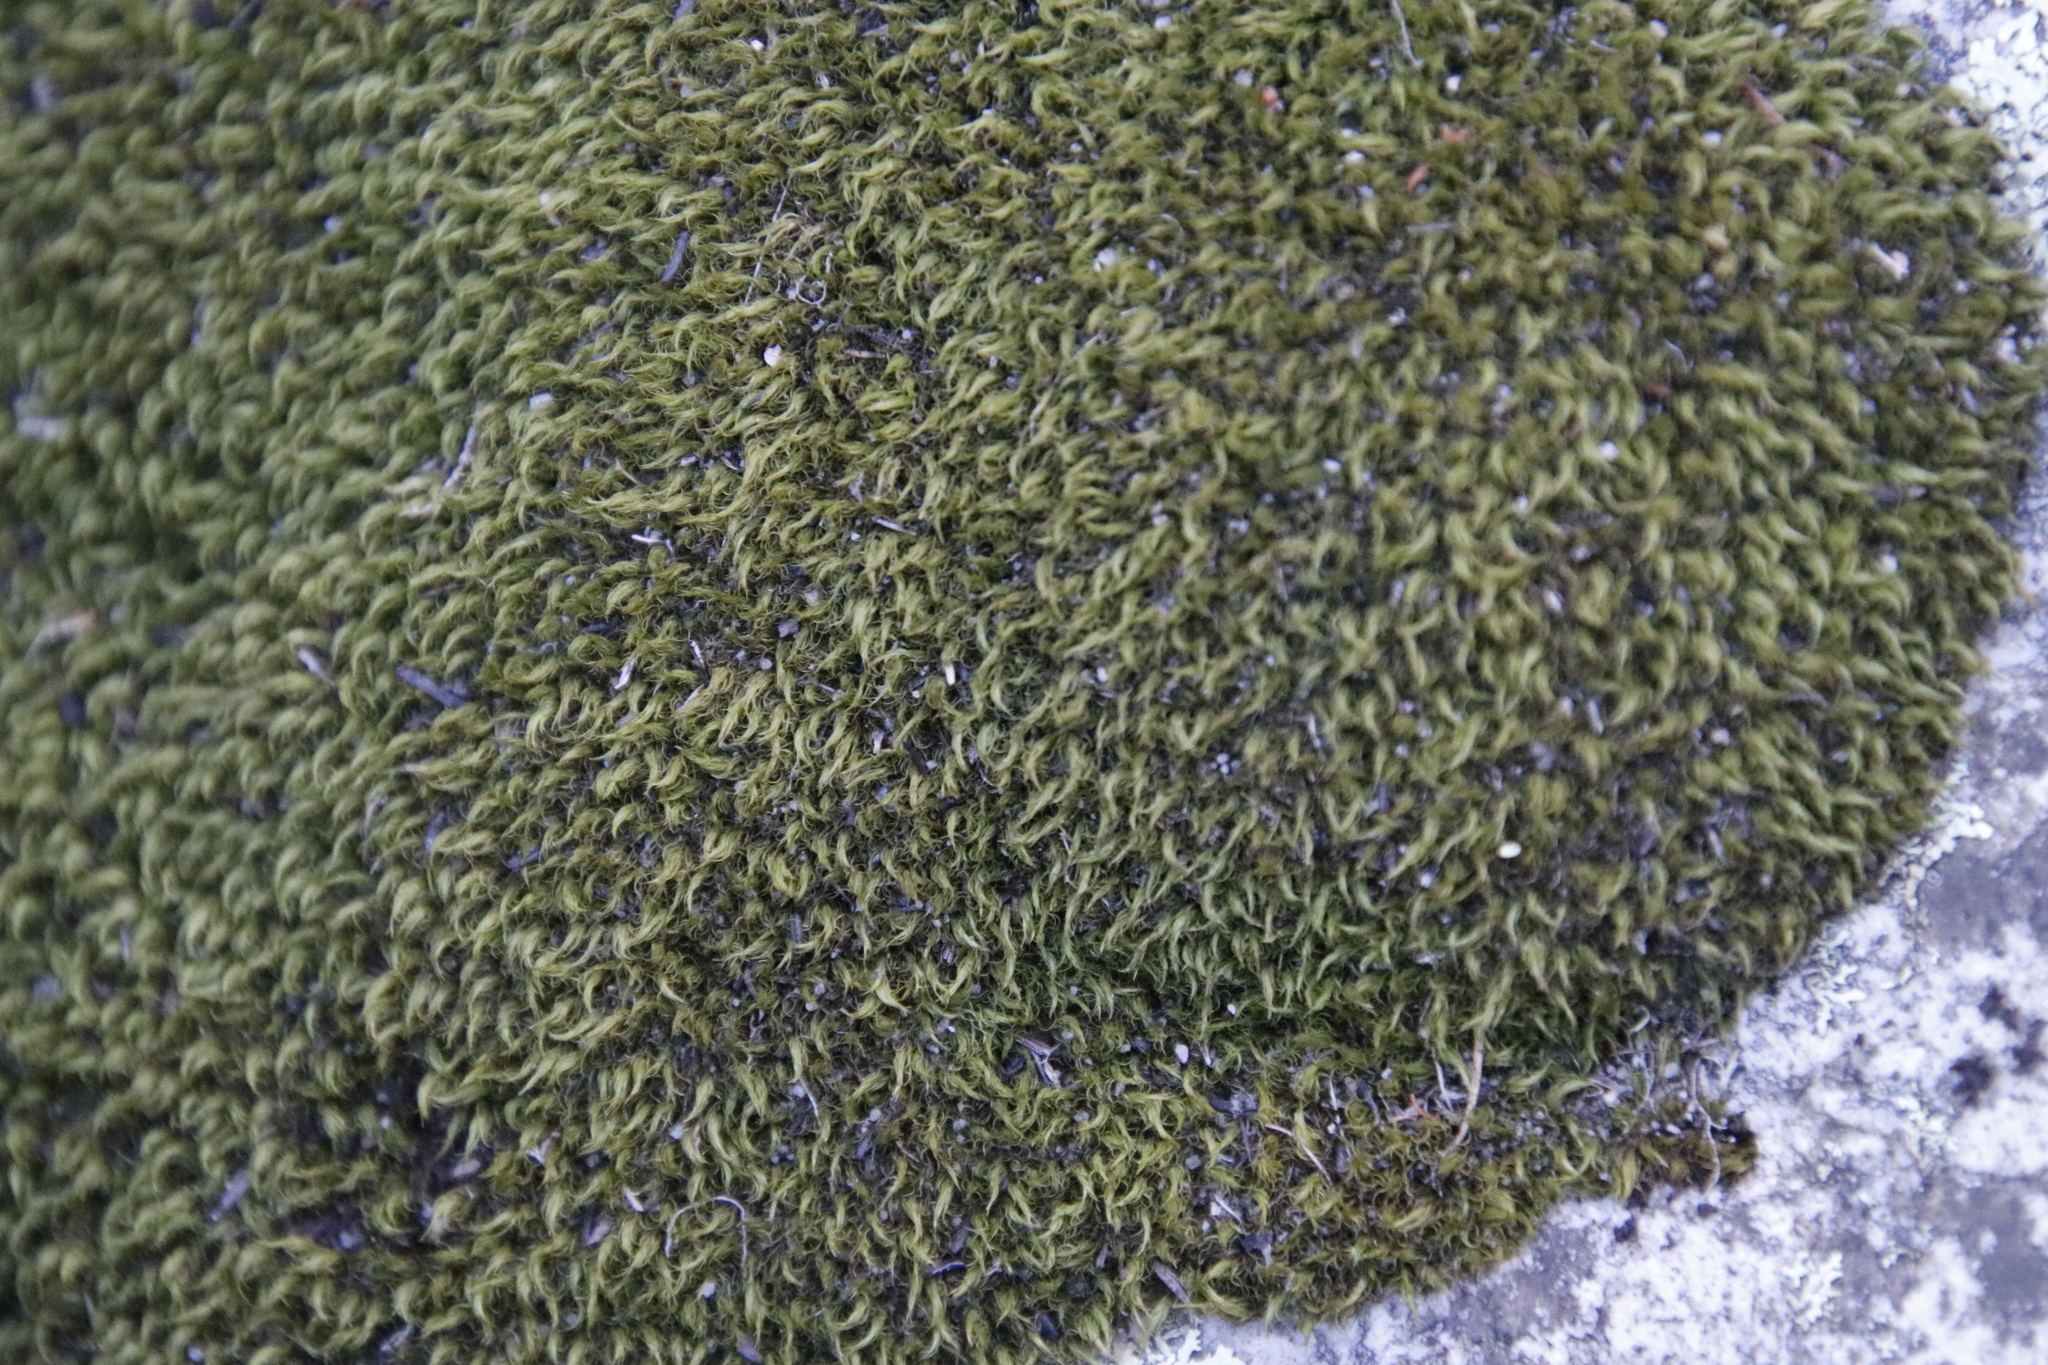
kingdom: Plantae
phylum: Bryophyta
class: Bryopsida
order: Dicranales
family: Dicranaceae
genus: Leucoloma
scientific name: Leucoloma sprengelianum
